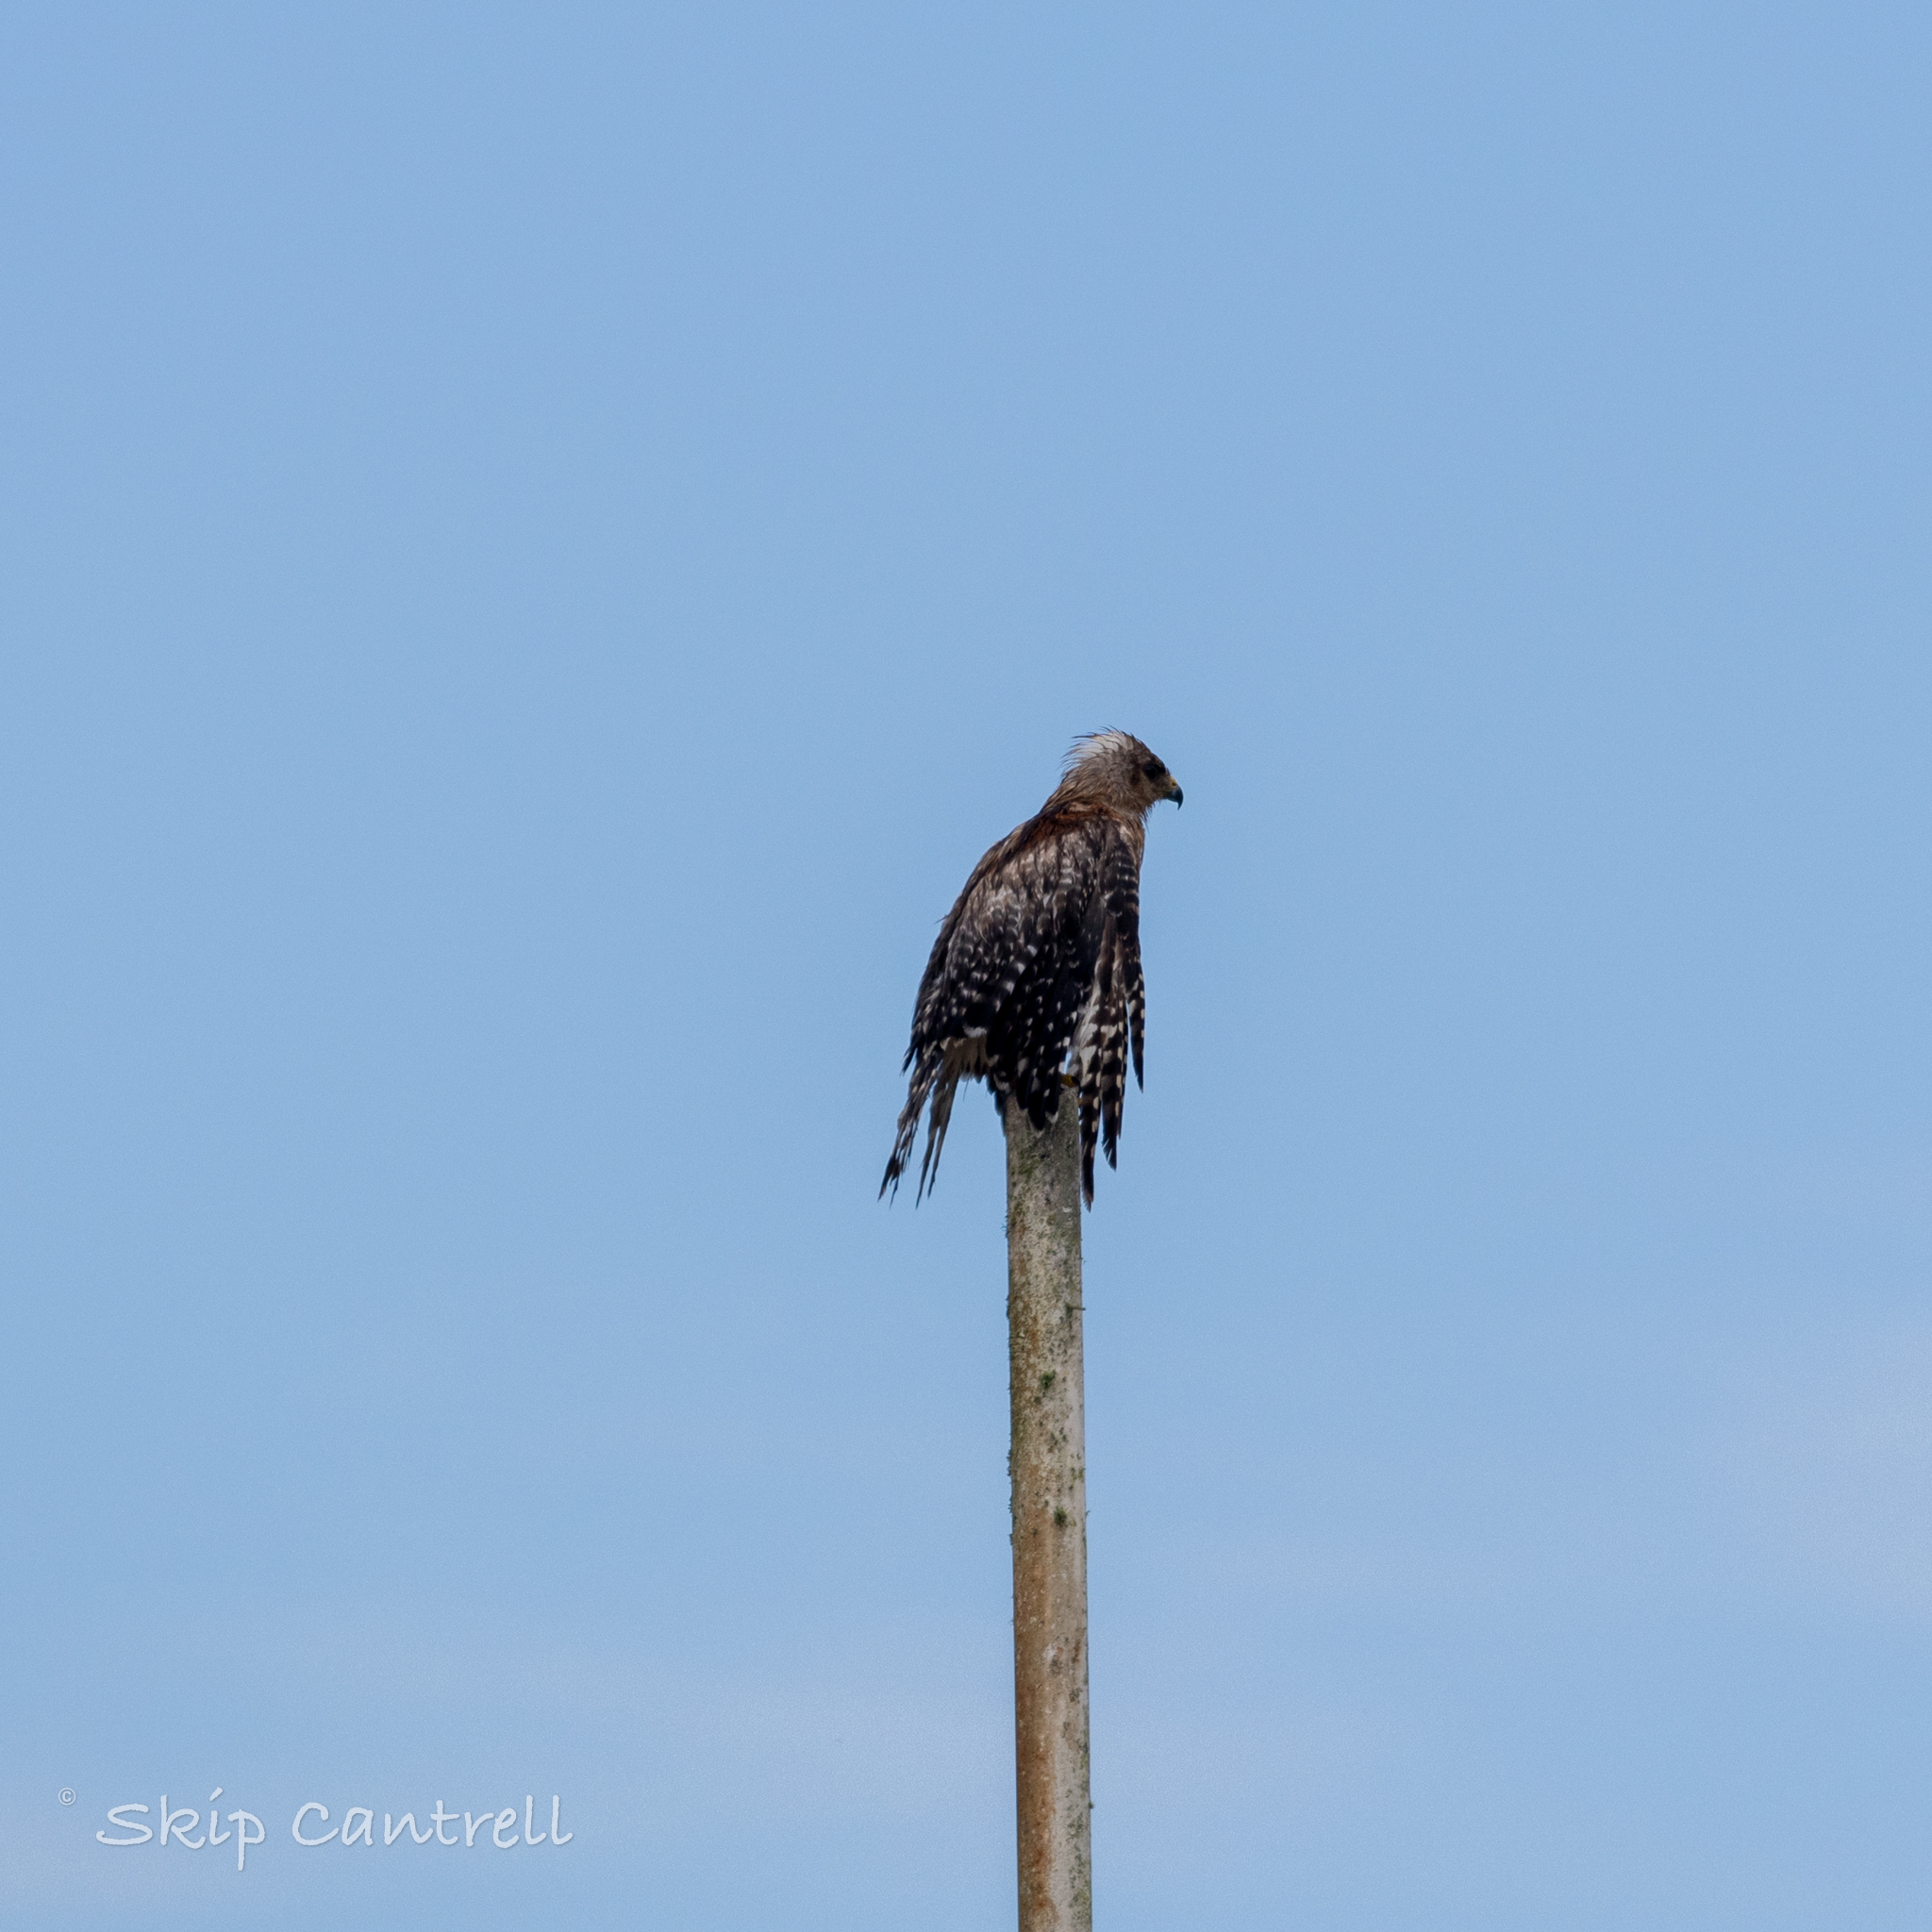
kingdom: Animalia
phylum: Chordata
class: Aves
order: Accipitriformes
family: Accipitridae
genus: Buteo
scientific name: Buteo lineatus
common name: Red-shouldered hawk
